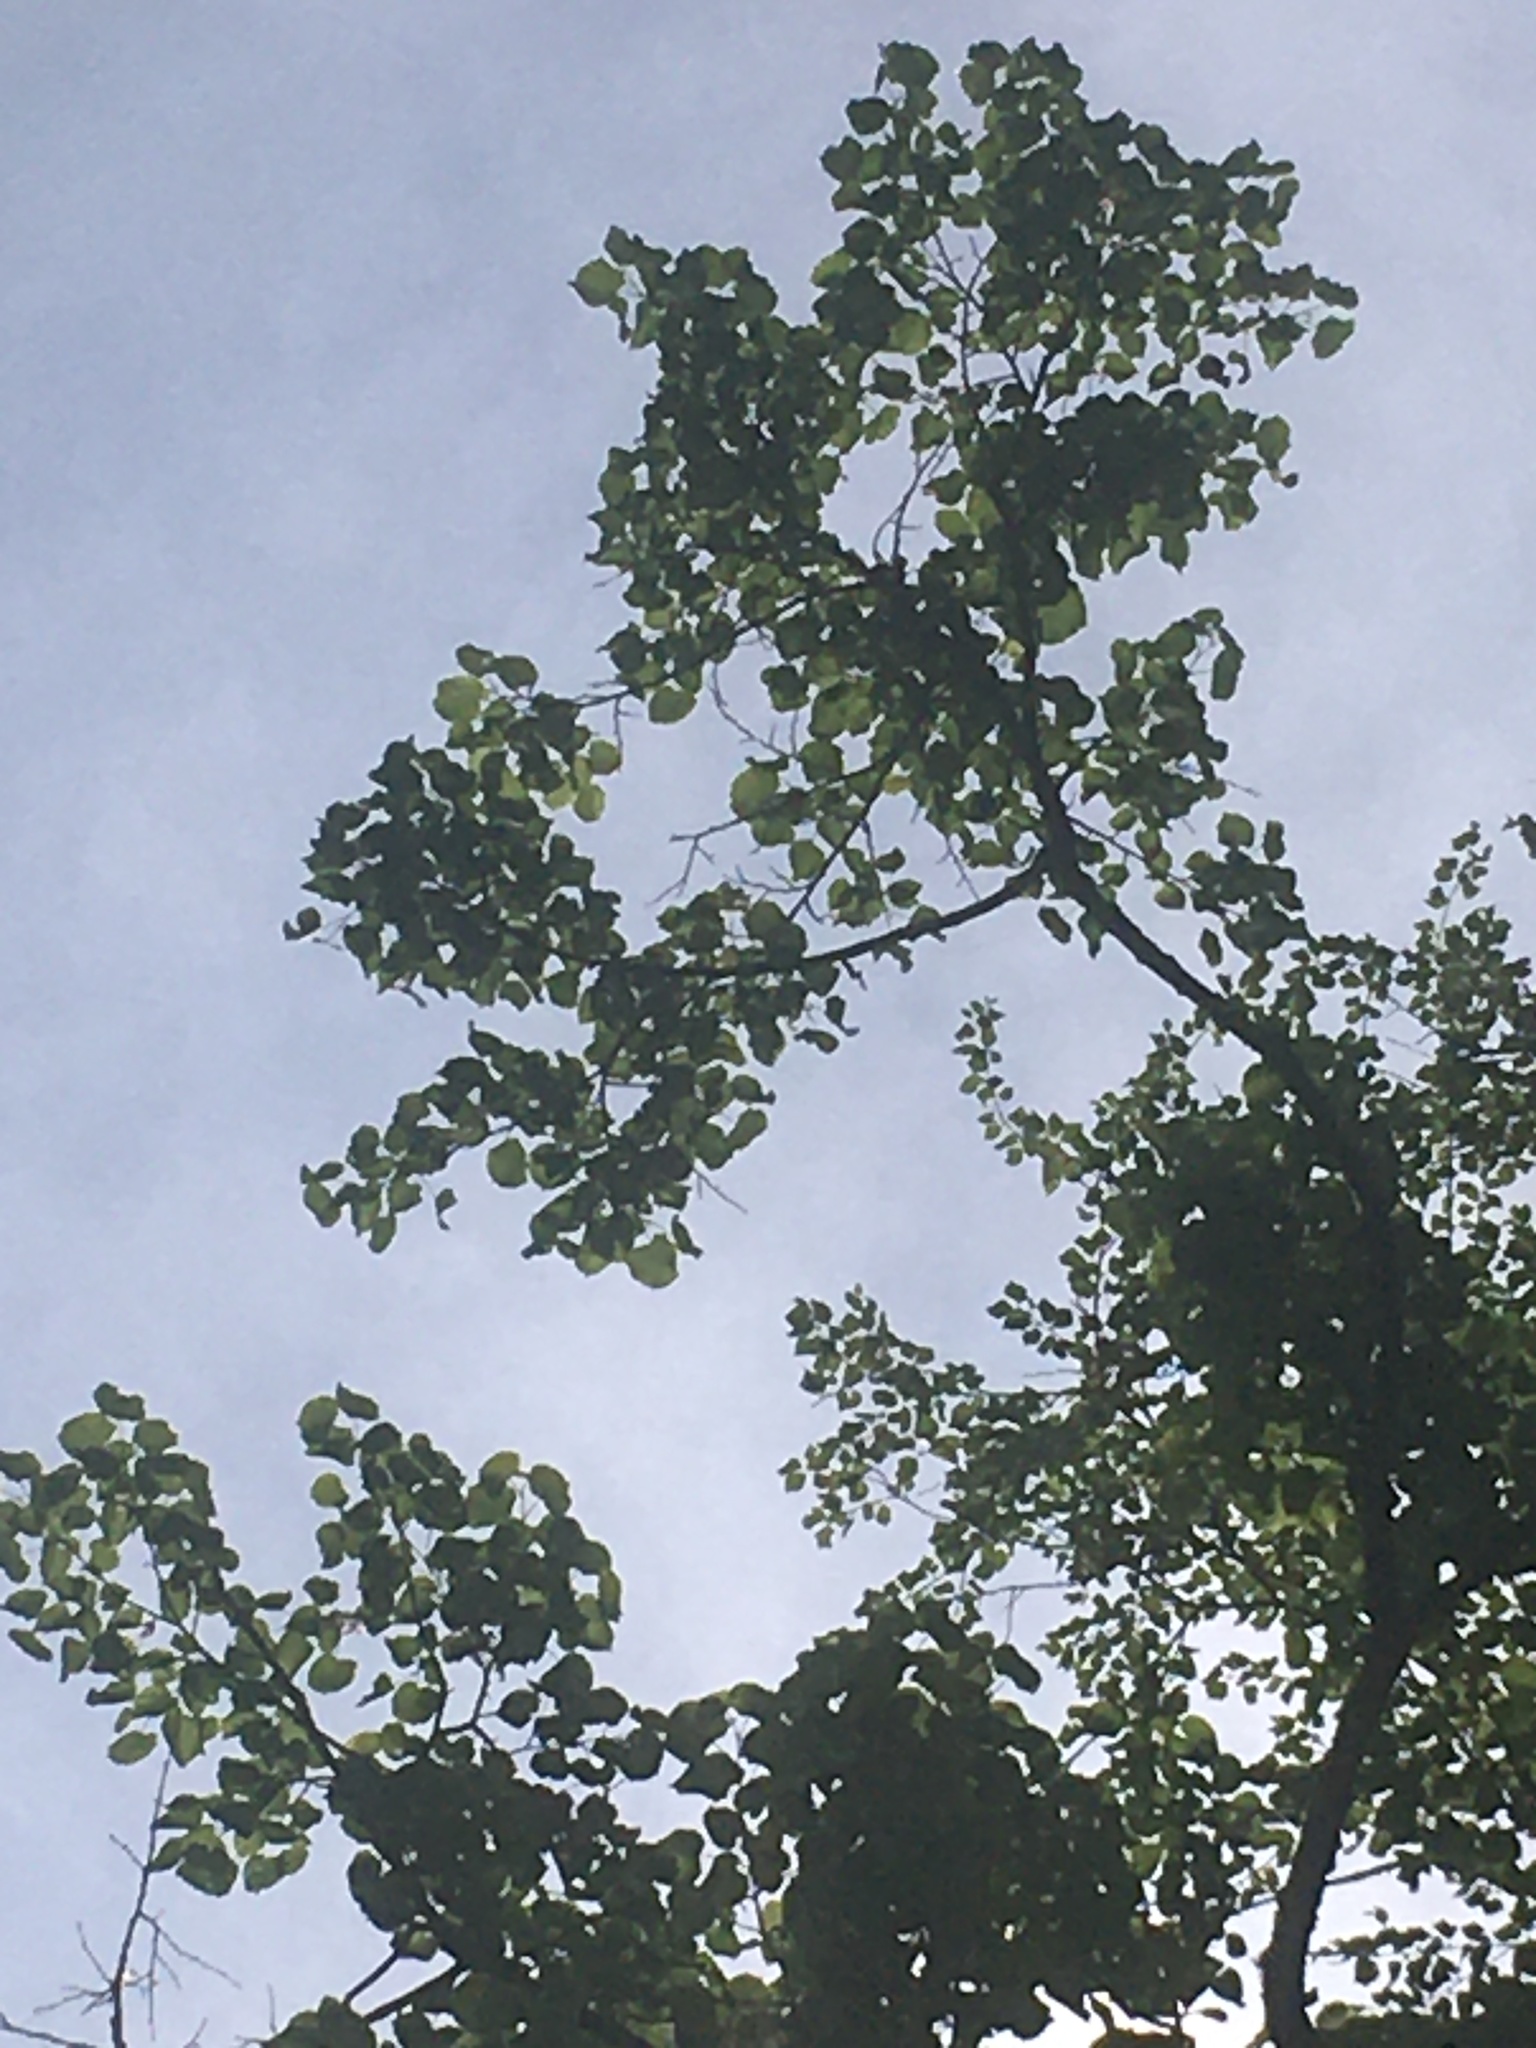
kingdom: Plantae
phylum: Tracheophyta
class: Magnoliopsida
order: Malvales
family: Malvaceae
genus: Tilia
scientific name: Tilia americana
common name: Basswood
